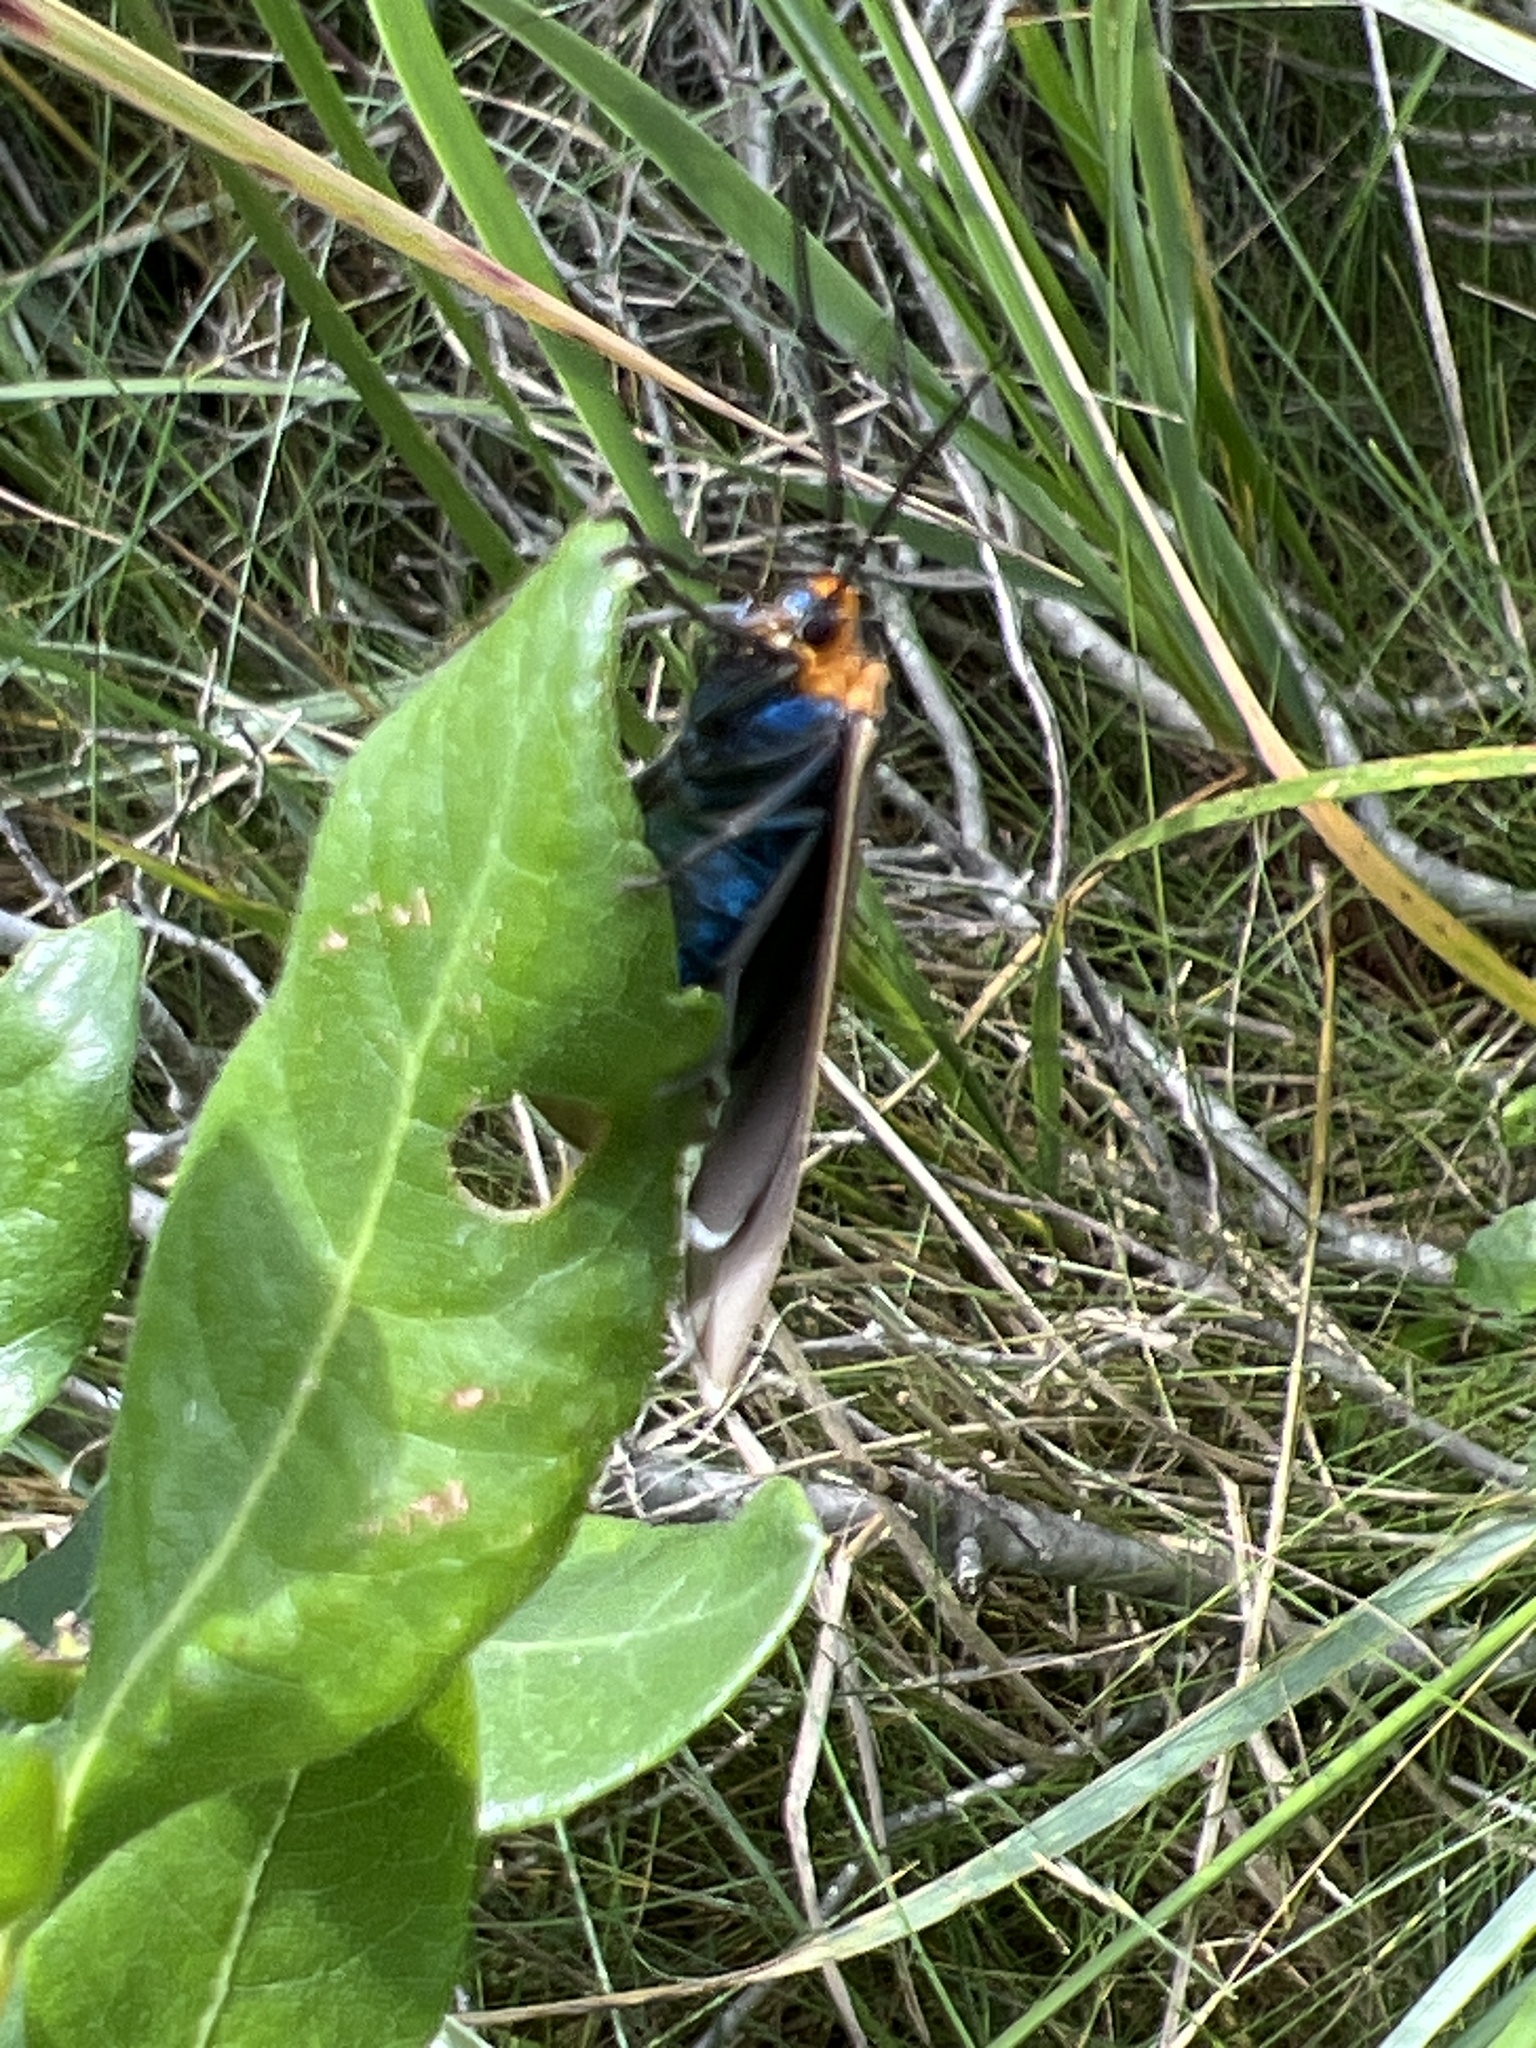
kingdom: Animalia
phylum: Arthropoda
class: Insecta
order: Lepidoptera
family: Erebidae
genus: Ctenucha
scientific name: Ctenucha virginica
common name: Virginia ctenucha moth
